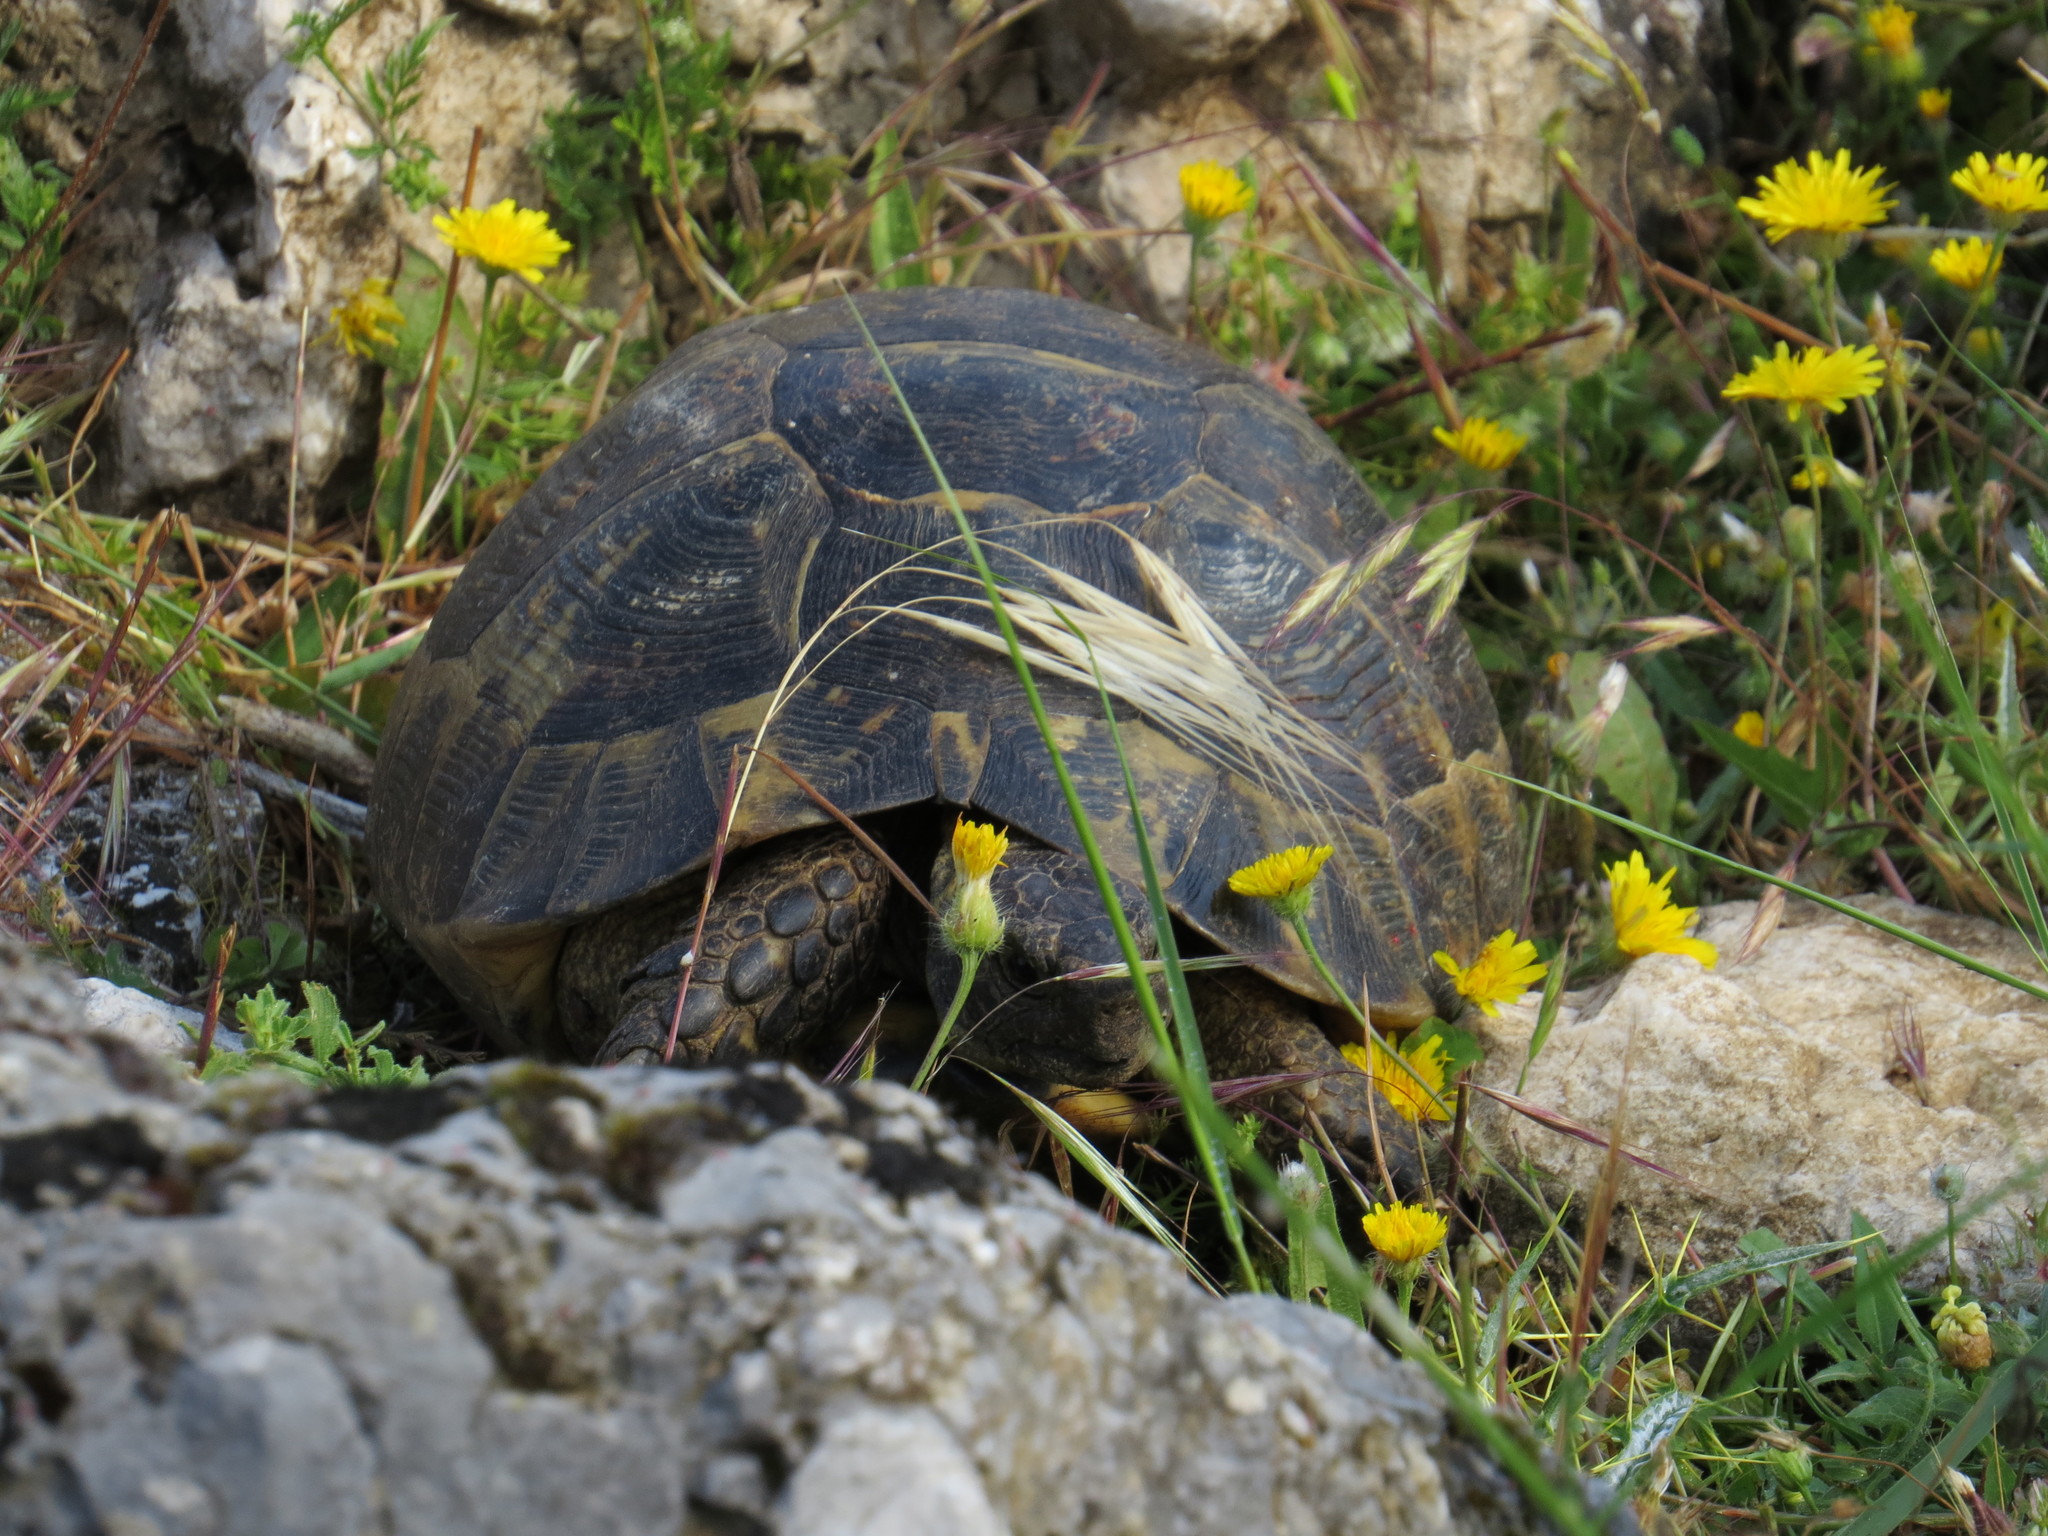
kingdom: Animalia
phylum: Chordata
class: Testudines
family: Testudinidae
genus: Testudo
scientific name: Testudo graeca
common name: Common tortoise
